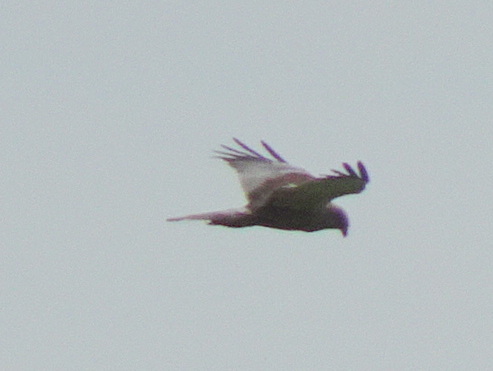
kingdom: Animalia
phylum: Chordata
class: Aves
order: Accipitriformes
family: Accipitridae
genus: Circus
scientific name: Circus aeruginosus
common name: Western marsh harrier
